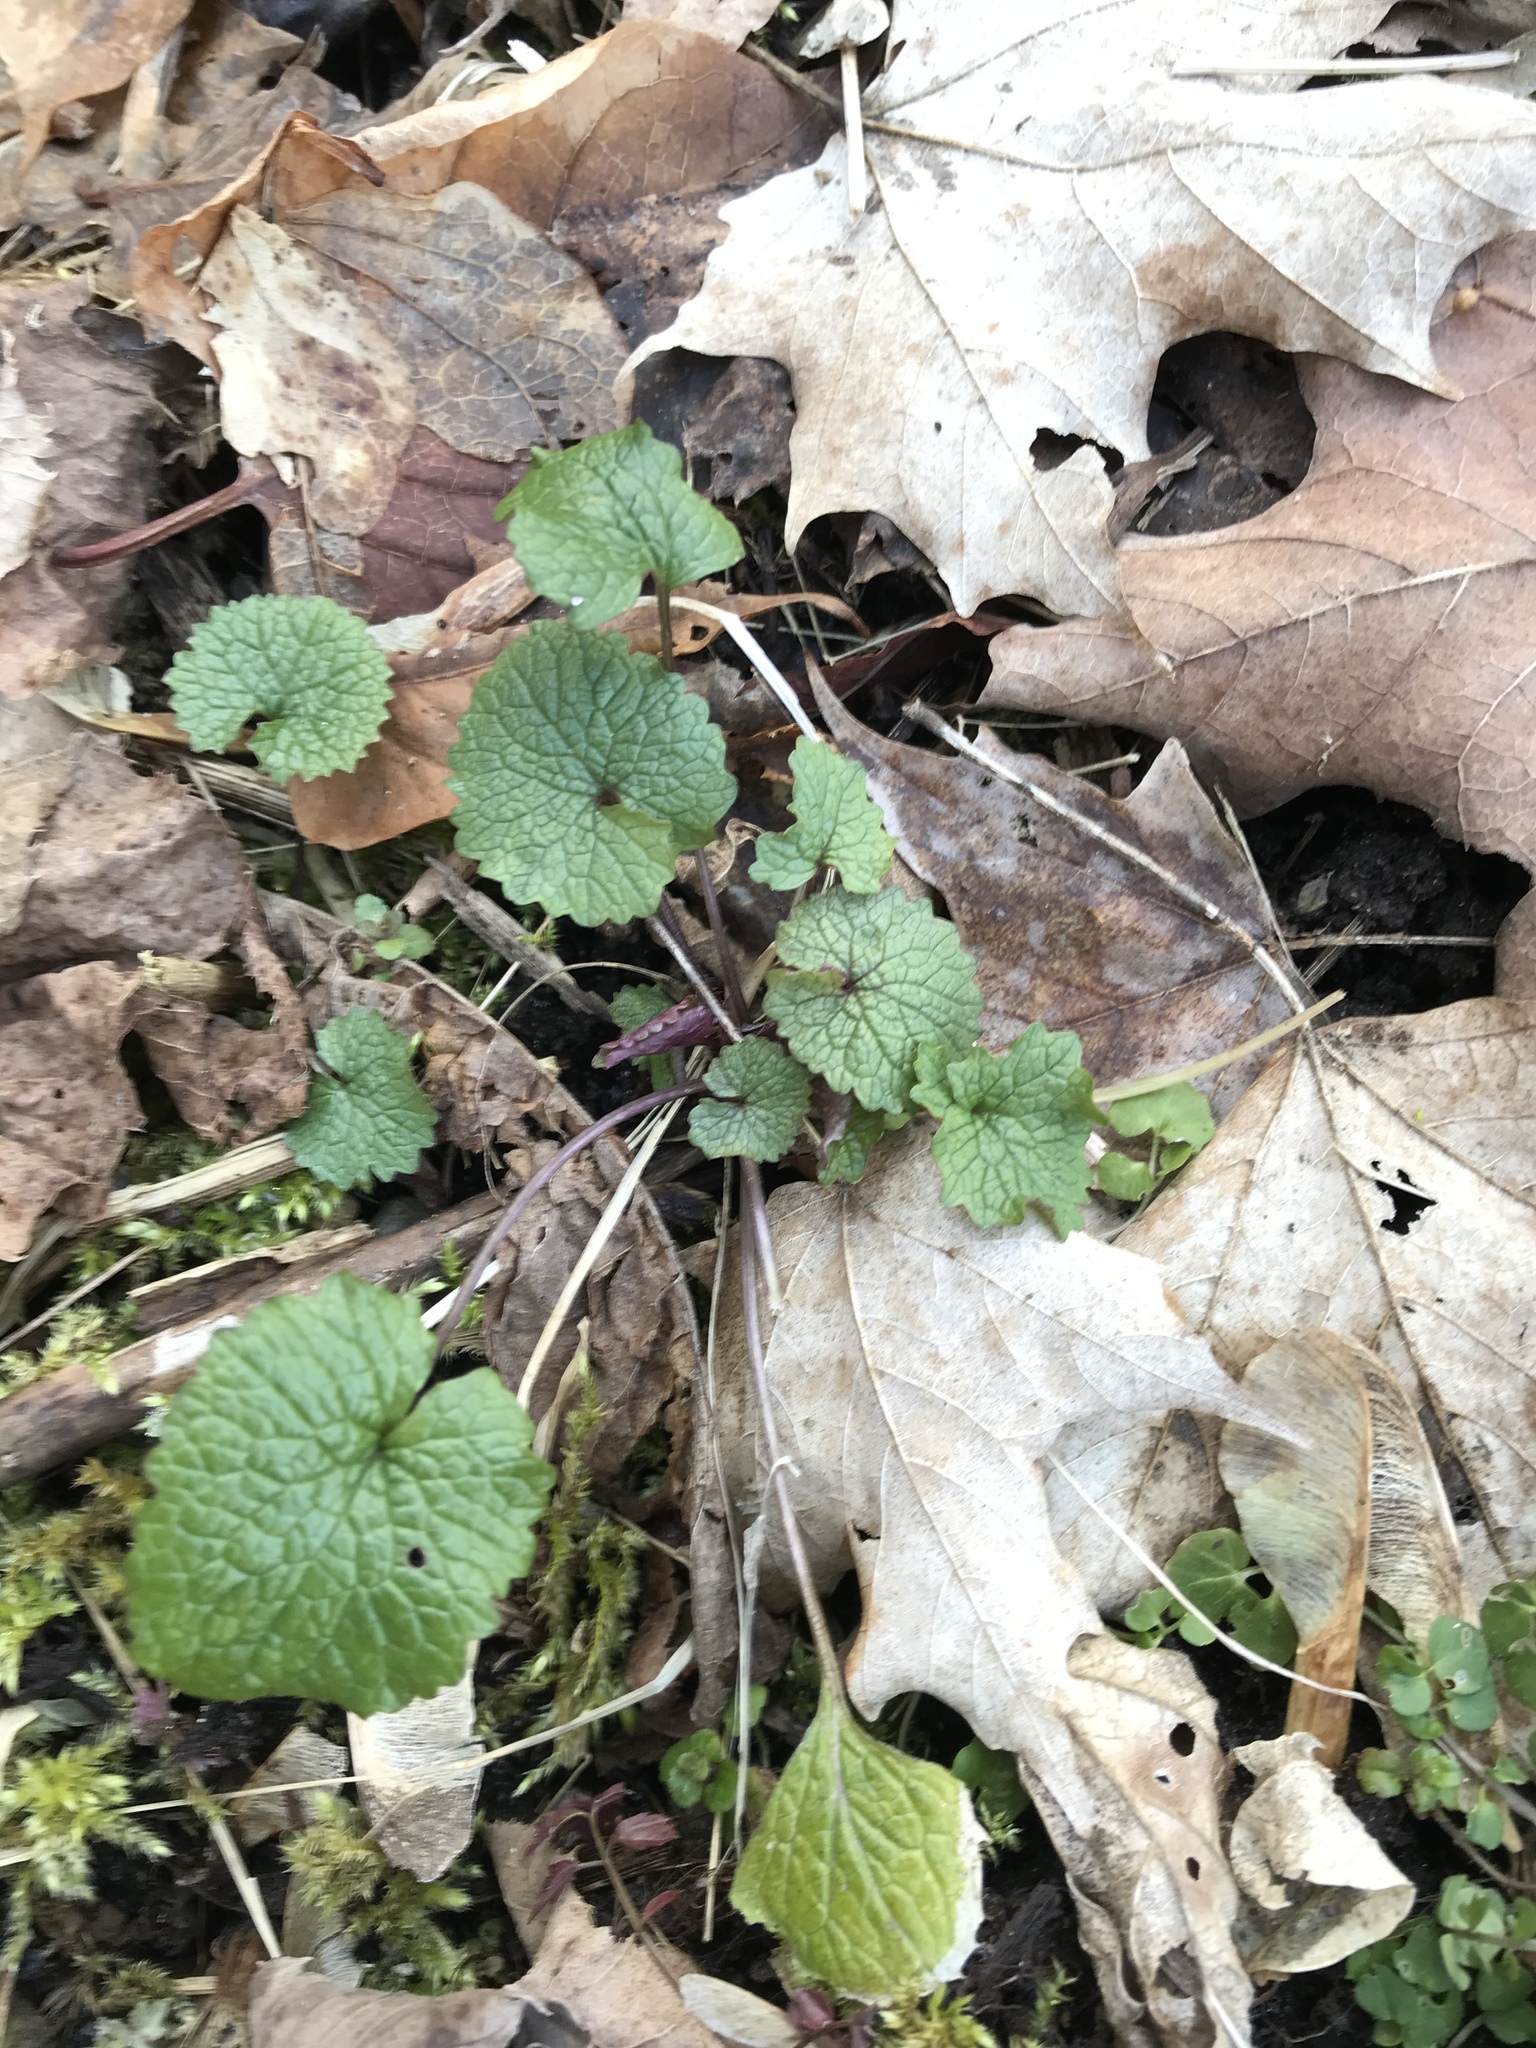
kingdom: Plantae
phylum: Tracheophyta
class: Magnoliopsida
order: Brassicales
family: Brassicaceae
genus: Alliaria
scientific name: Alliaria petiolata
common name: Garlic mustard
